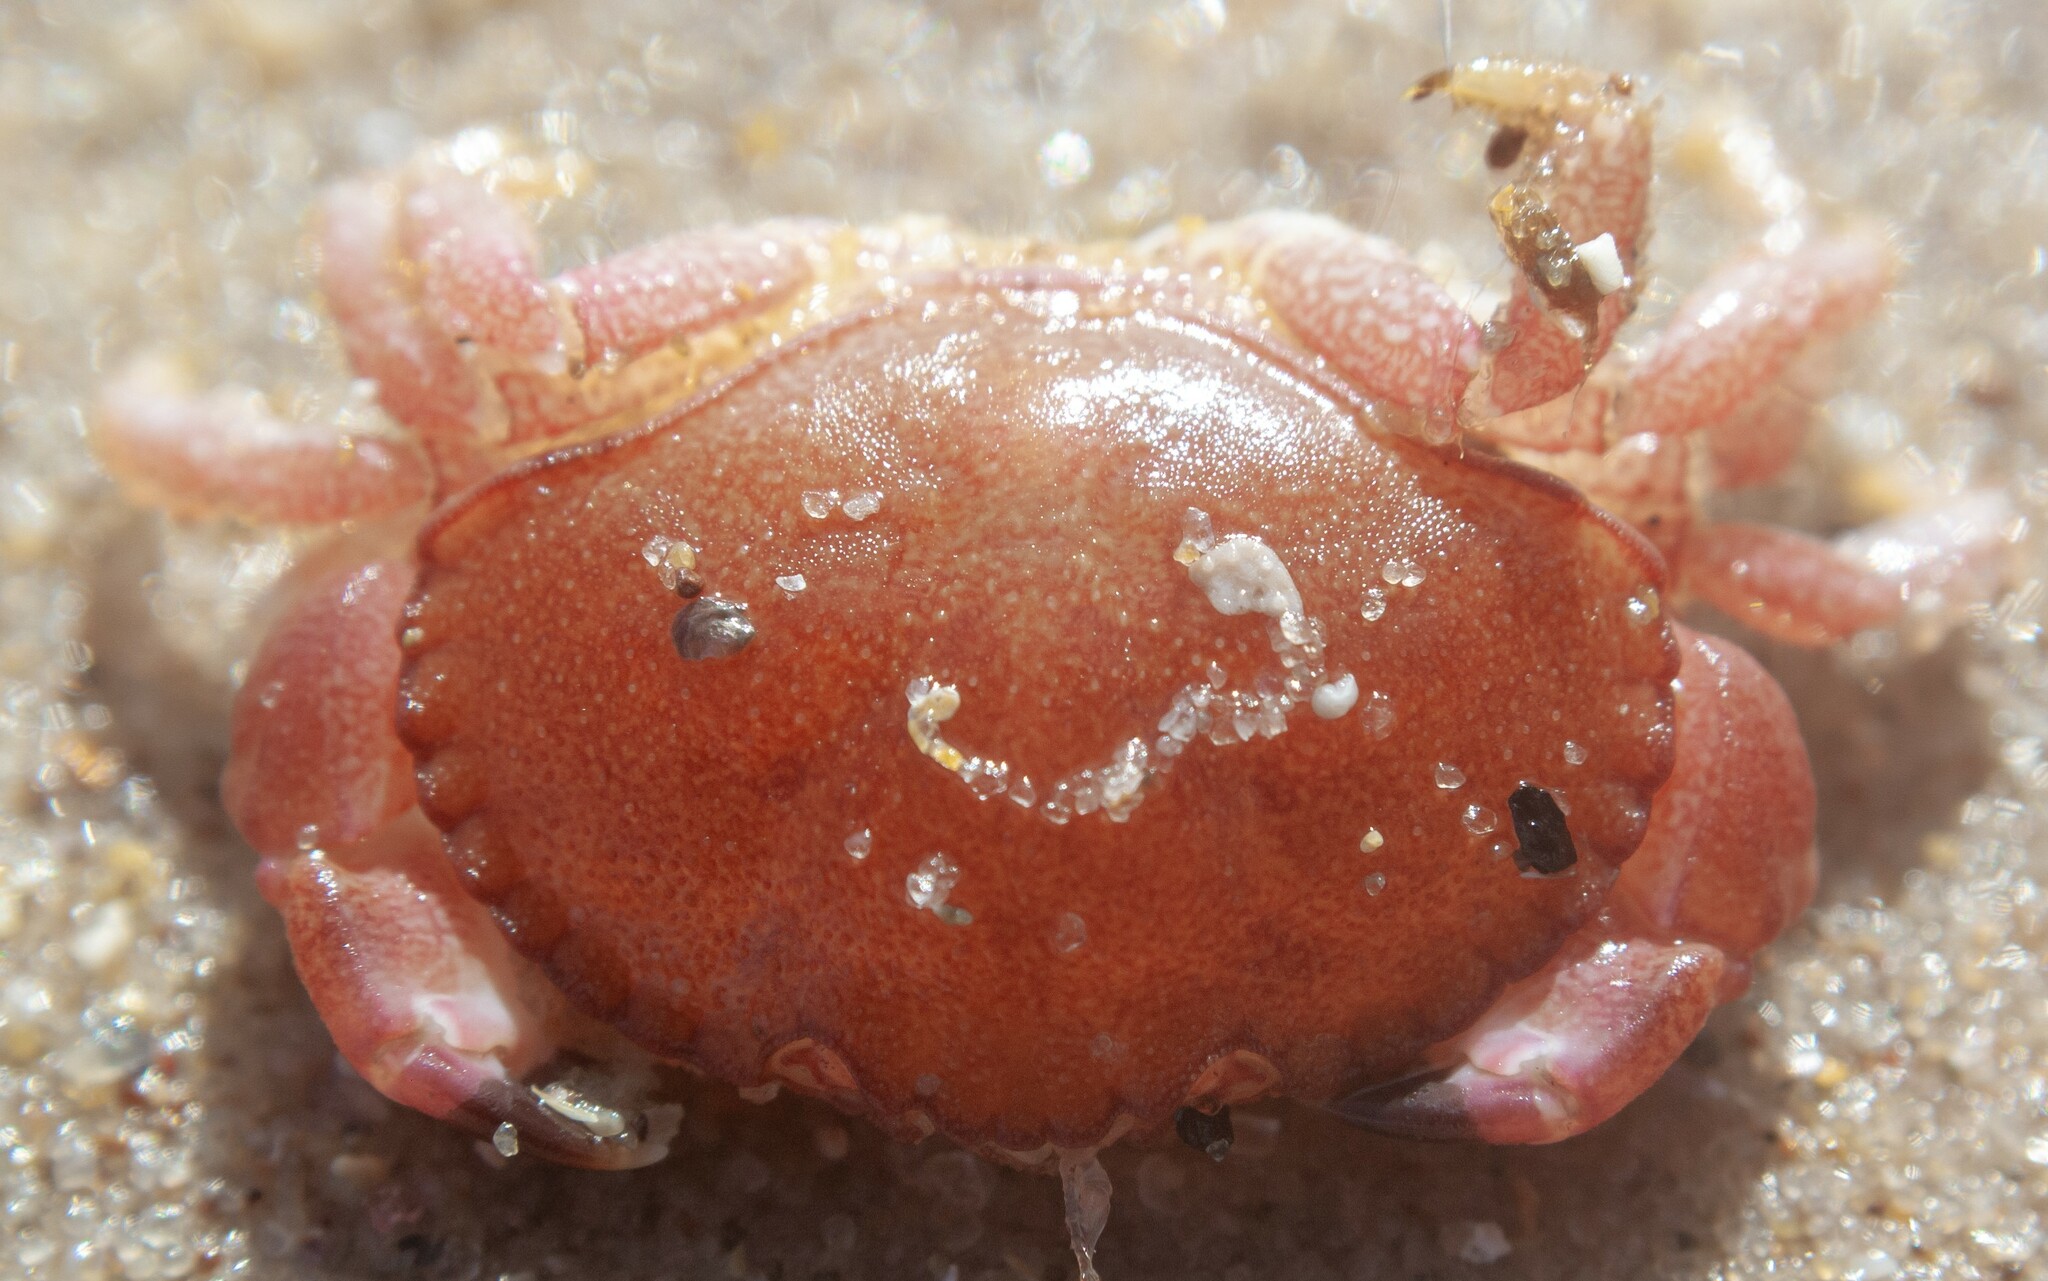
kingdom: Animalia
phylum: Arthropoda
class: Malacostraca
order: Decapoda
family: Cancridae
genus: Cancer
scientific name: Cancer pagurus
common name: Edible crab
